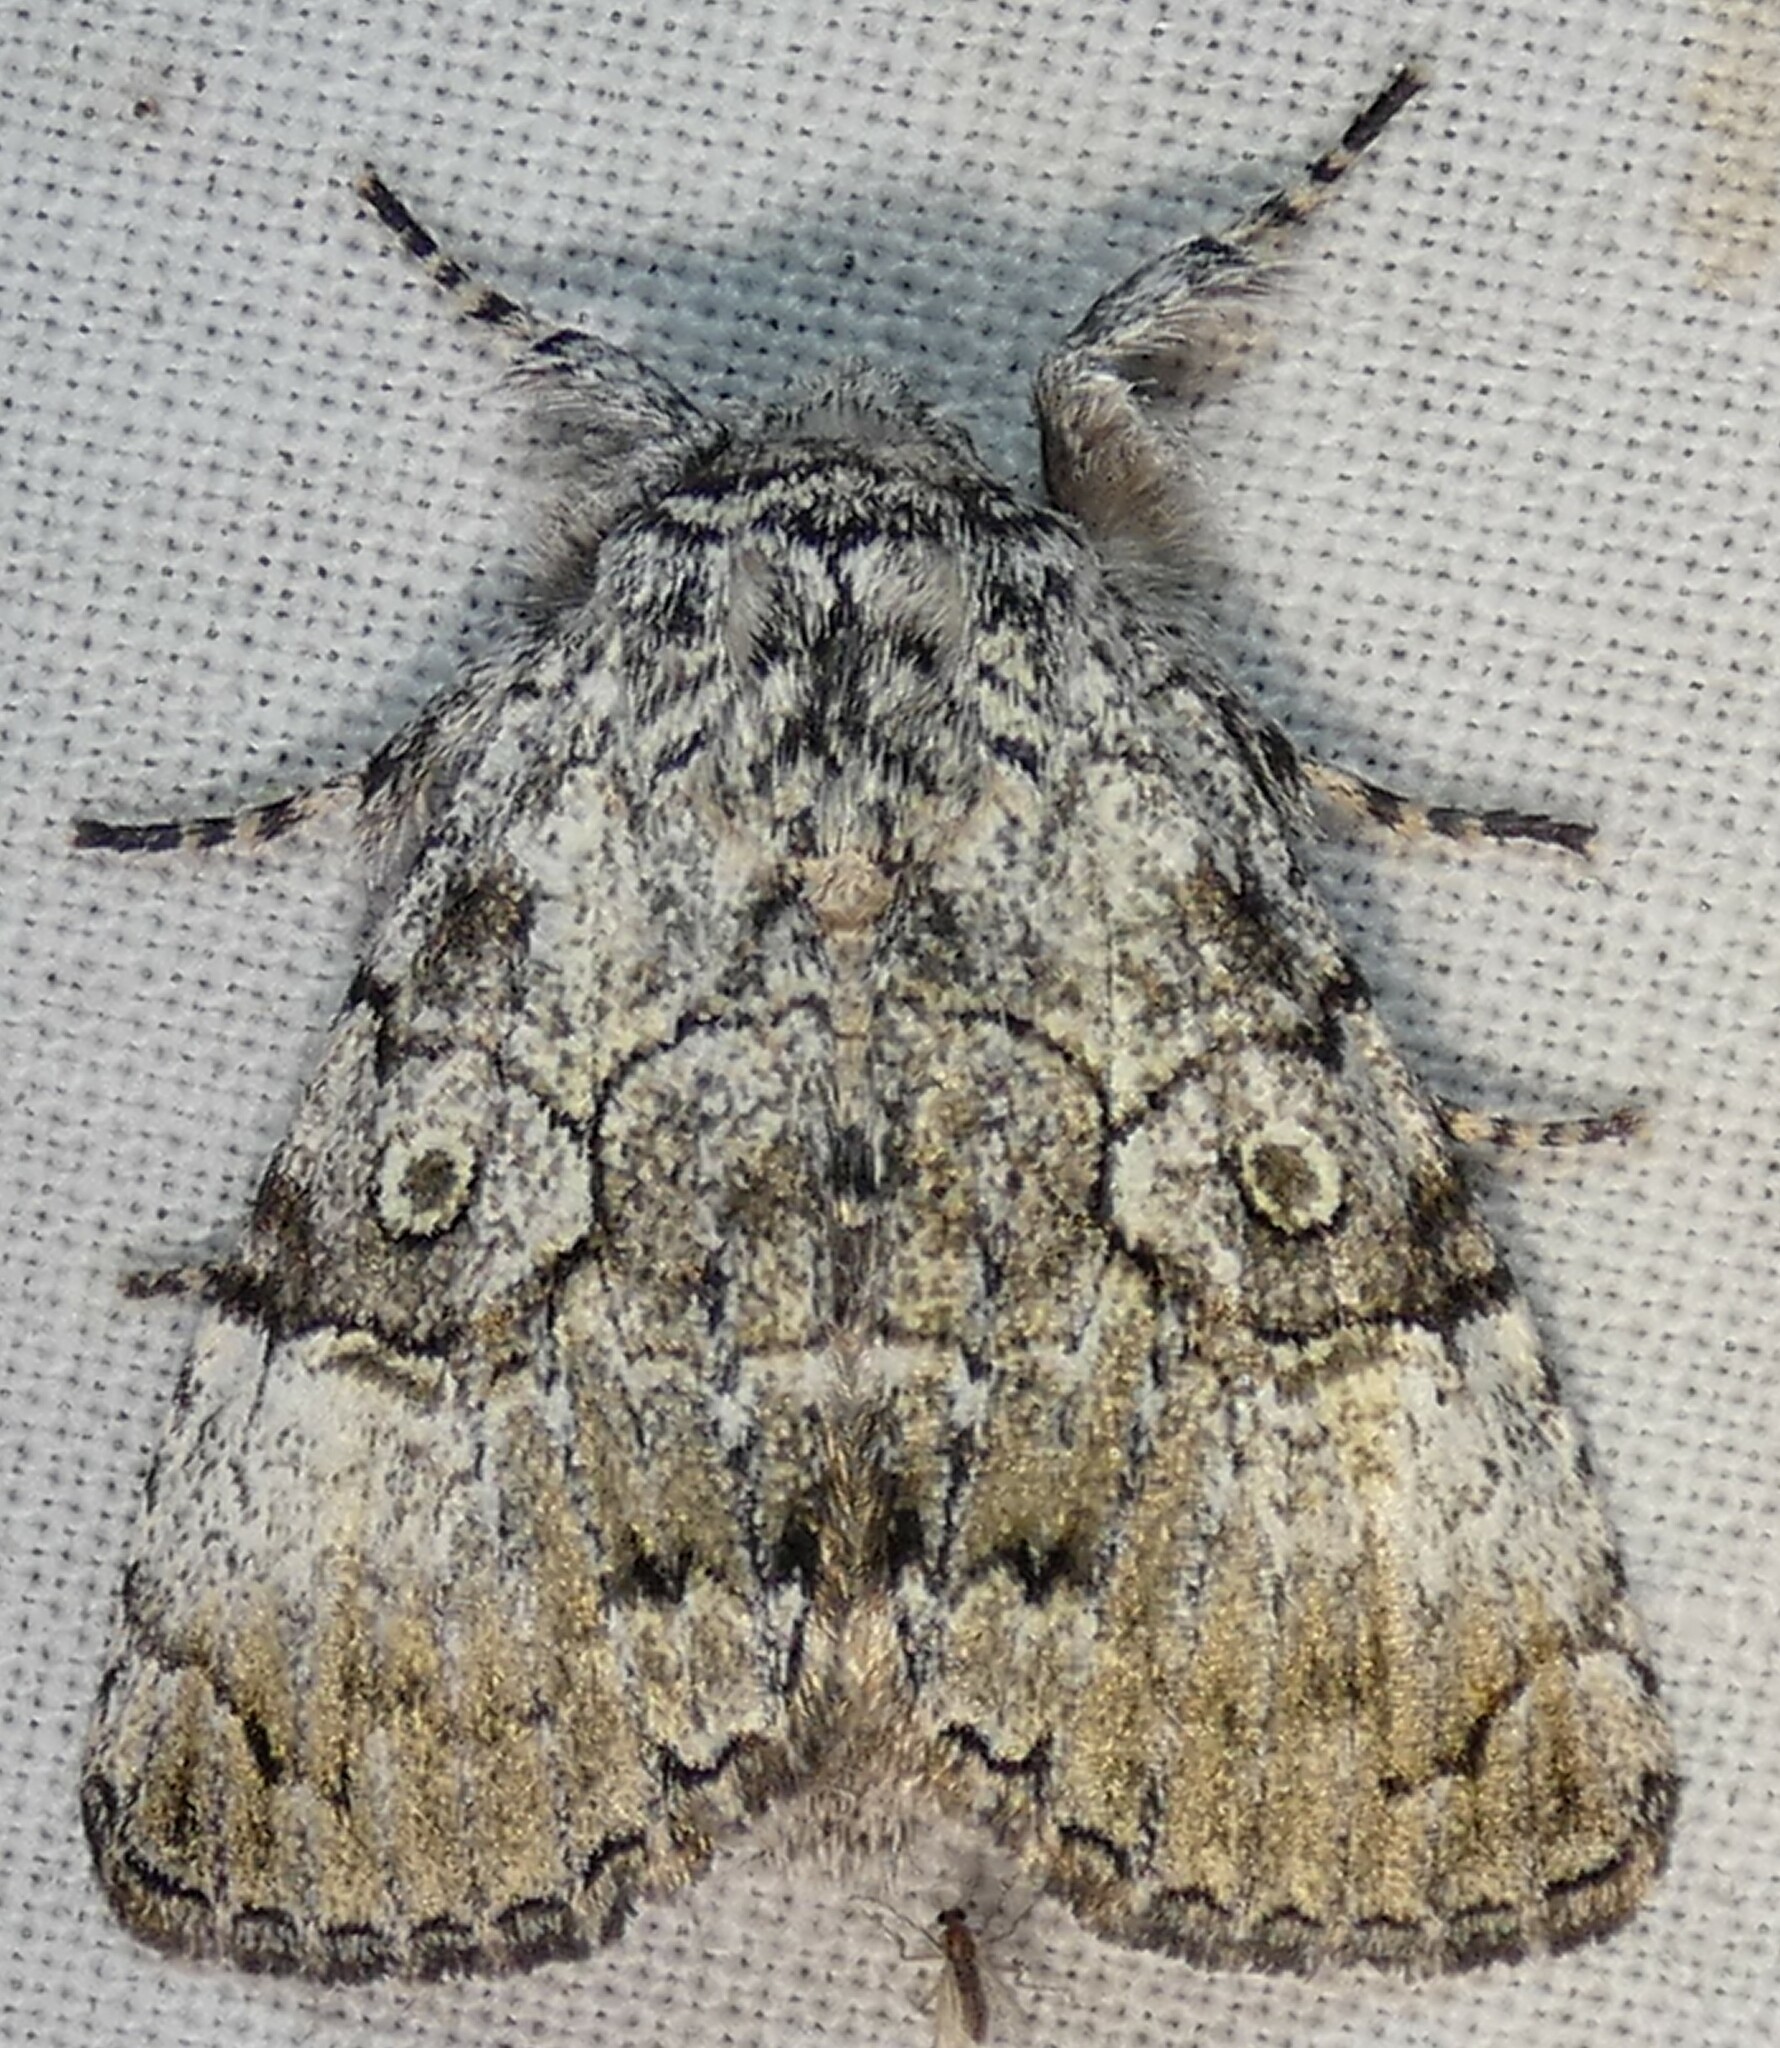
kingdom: Animalia
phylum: Arthropoda
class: Insecta
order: Lepidoptera
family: Noctuidae
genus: Charadra
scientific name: Charadra deridens
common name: Marbled tuffet
